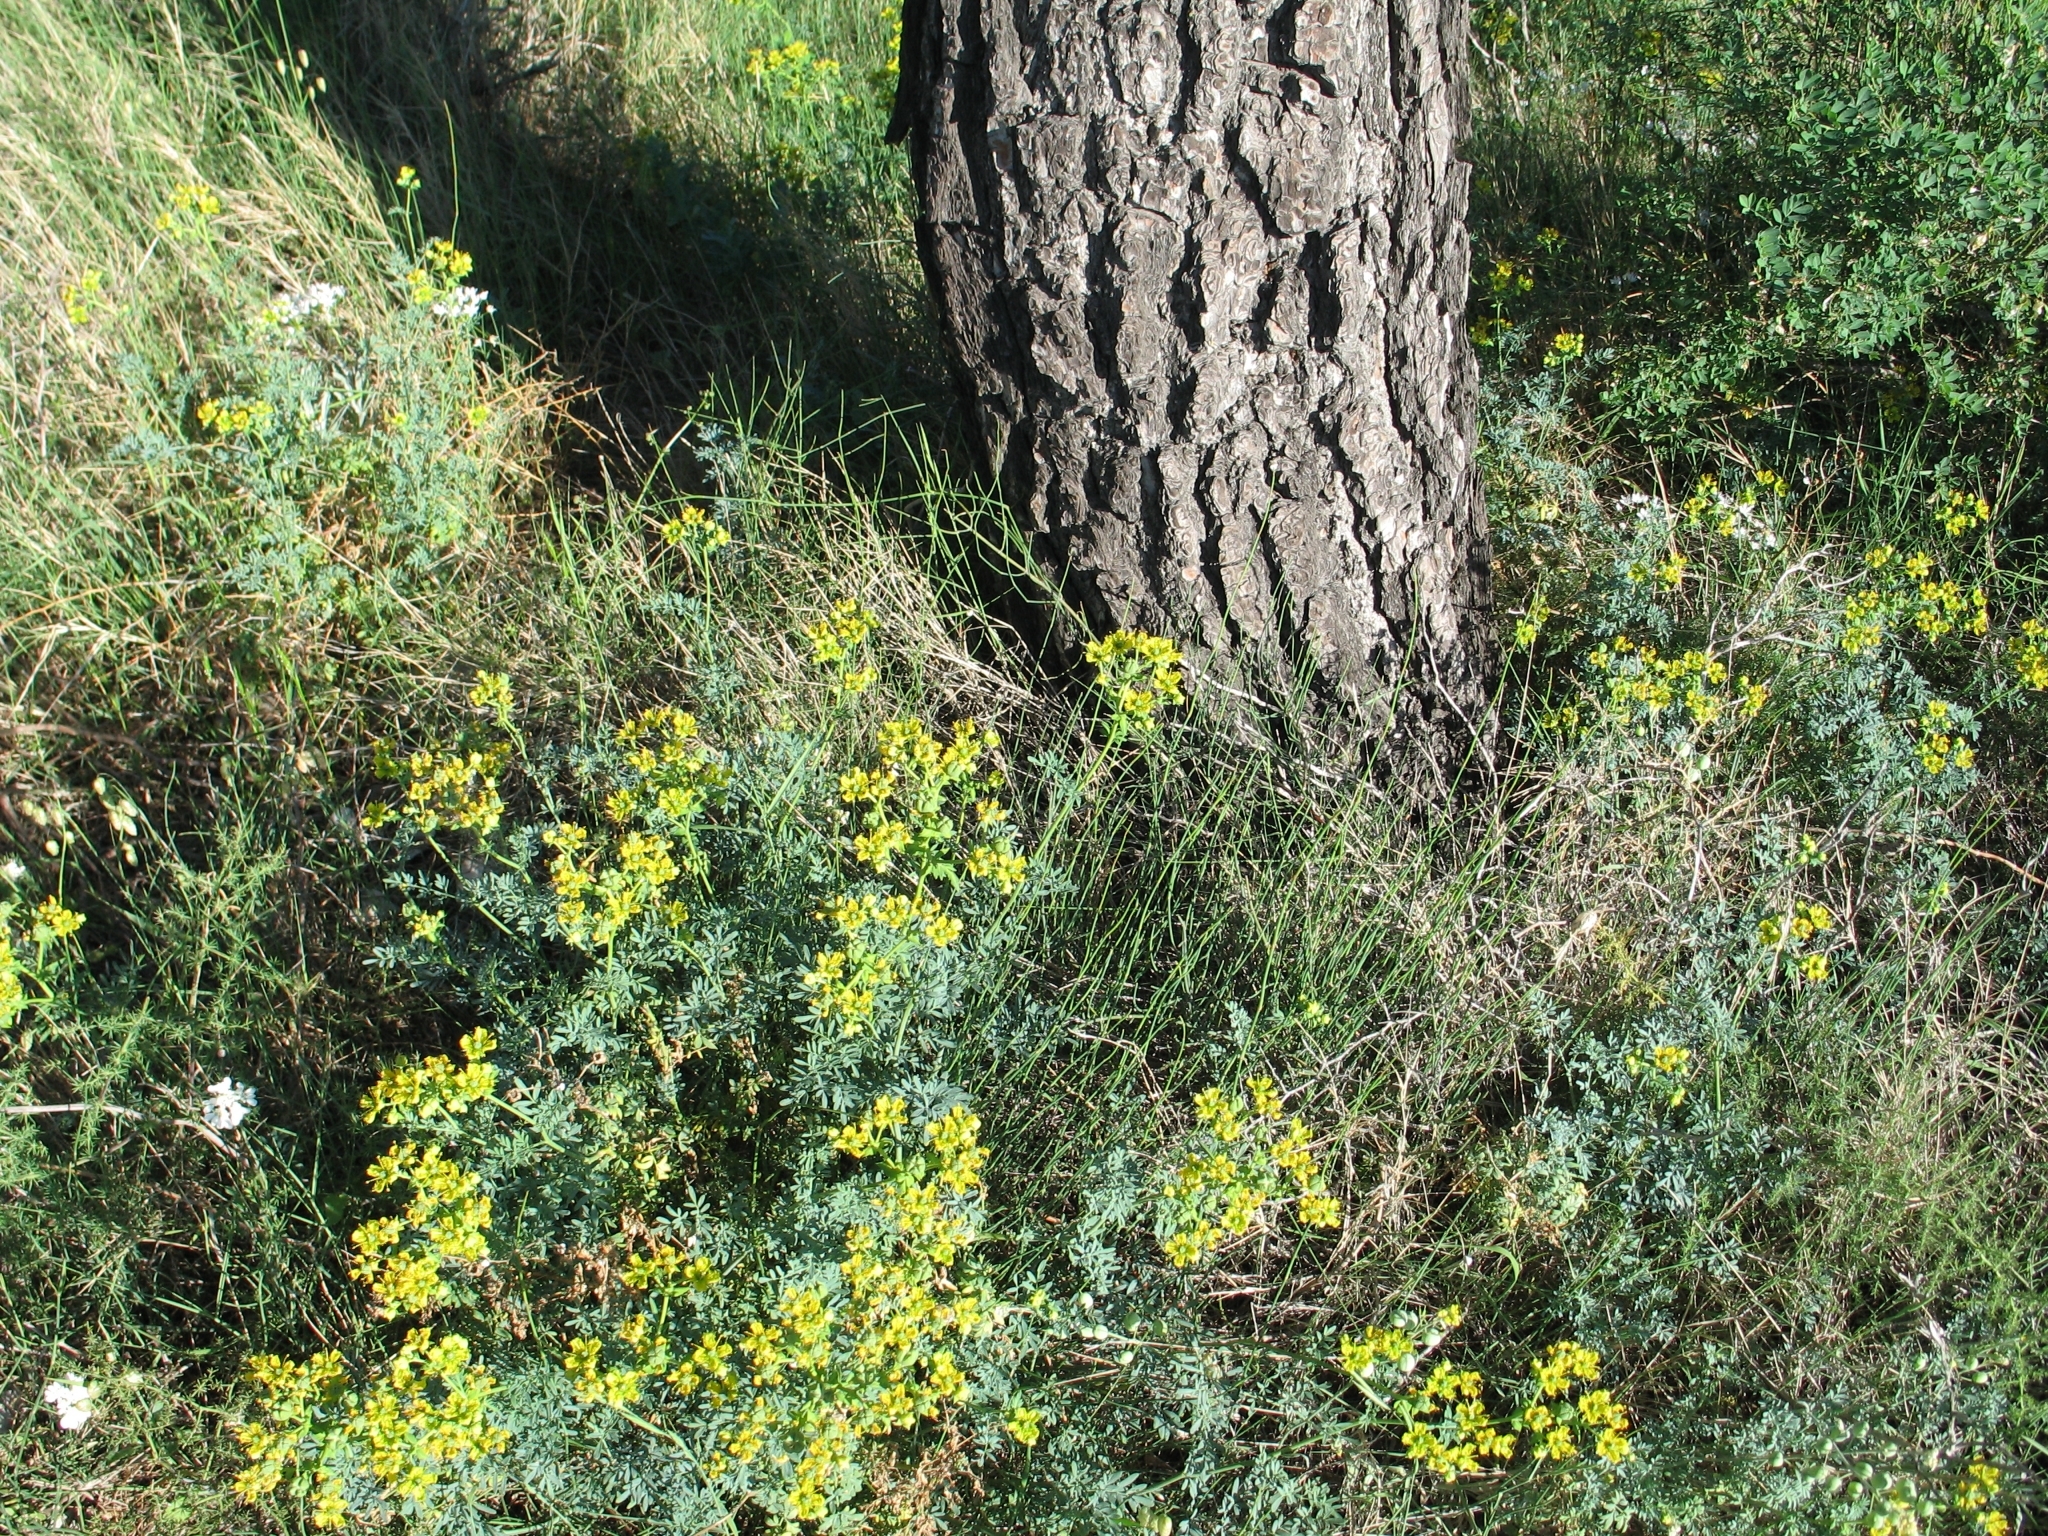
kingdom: Plantae
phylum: Tracheophyta
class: Magnoliopsida
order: Sapindales
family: Rutaceae
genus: Ruta
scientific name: Ruta chalepensis
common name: Fringed rue
